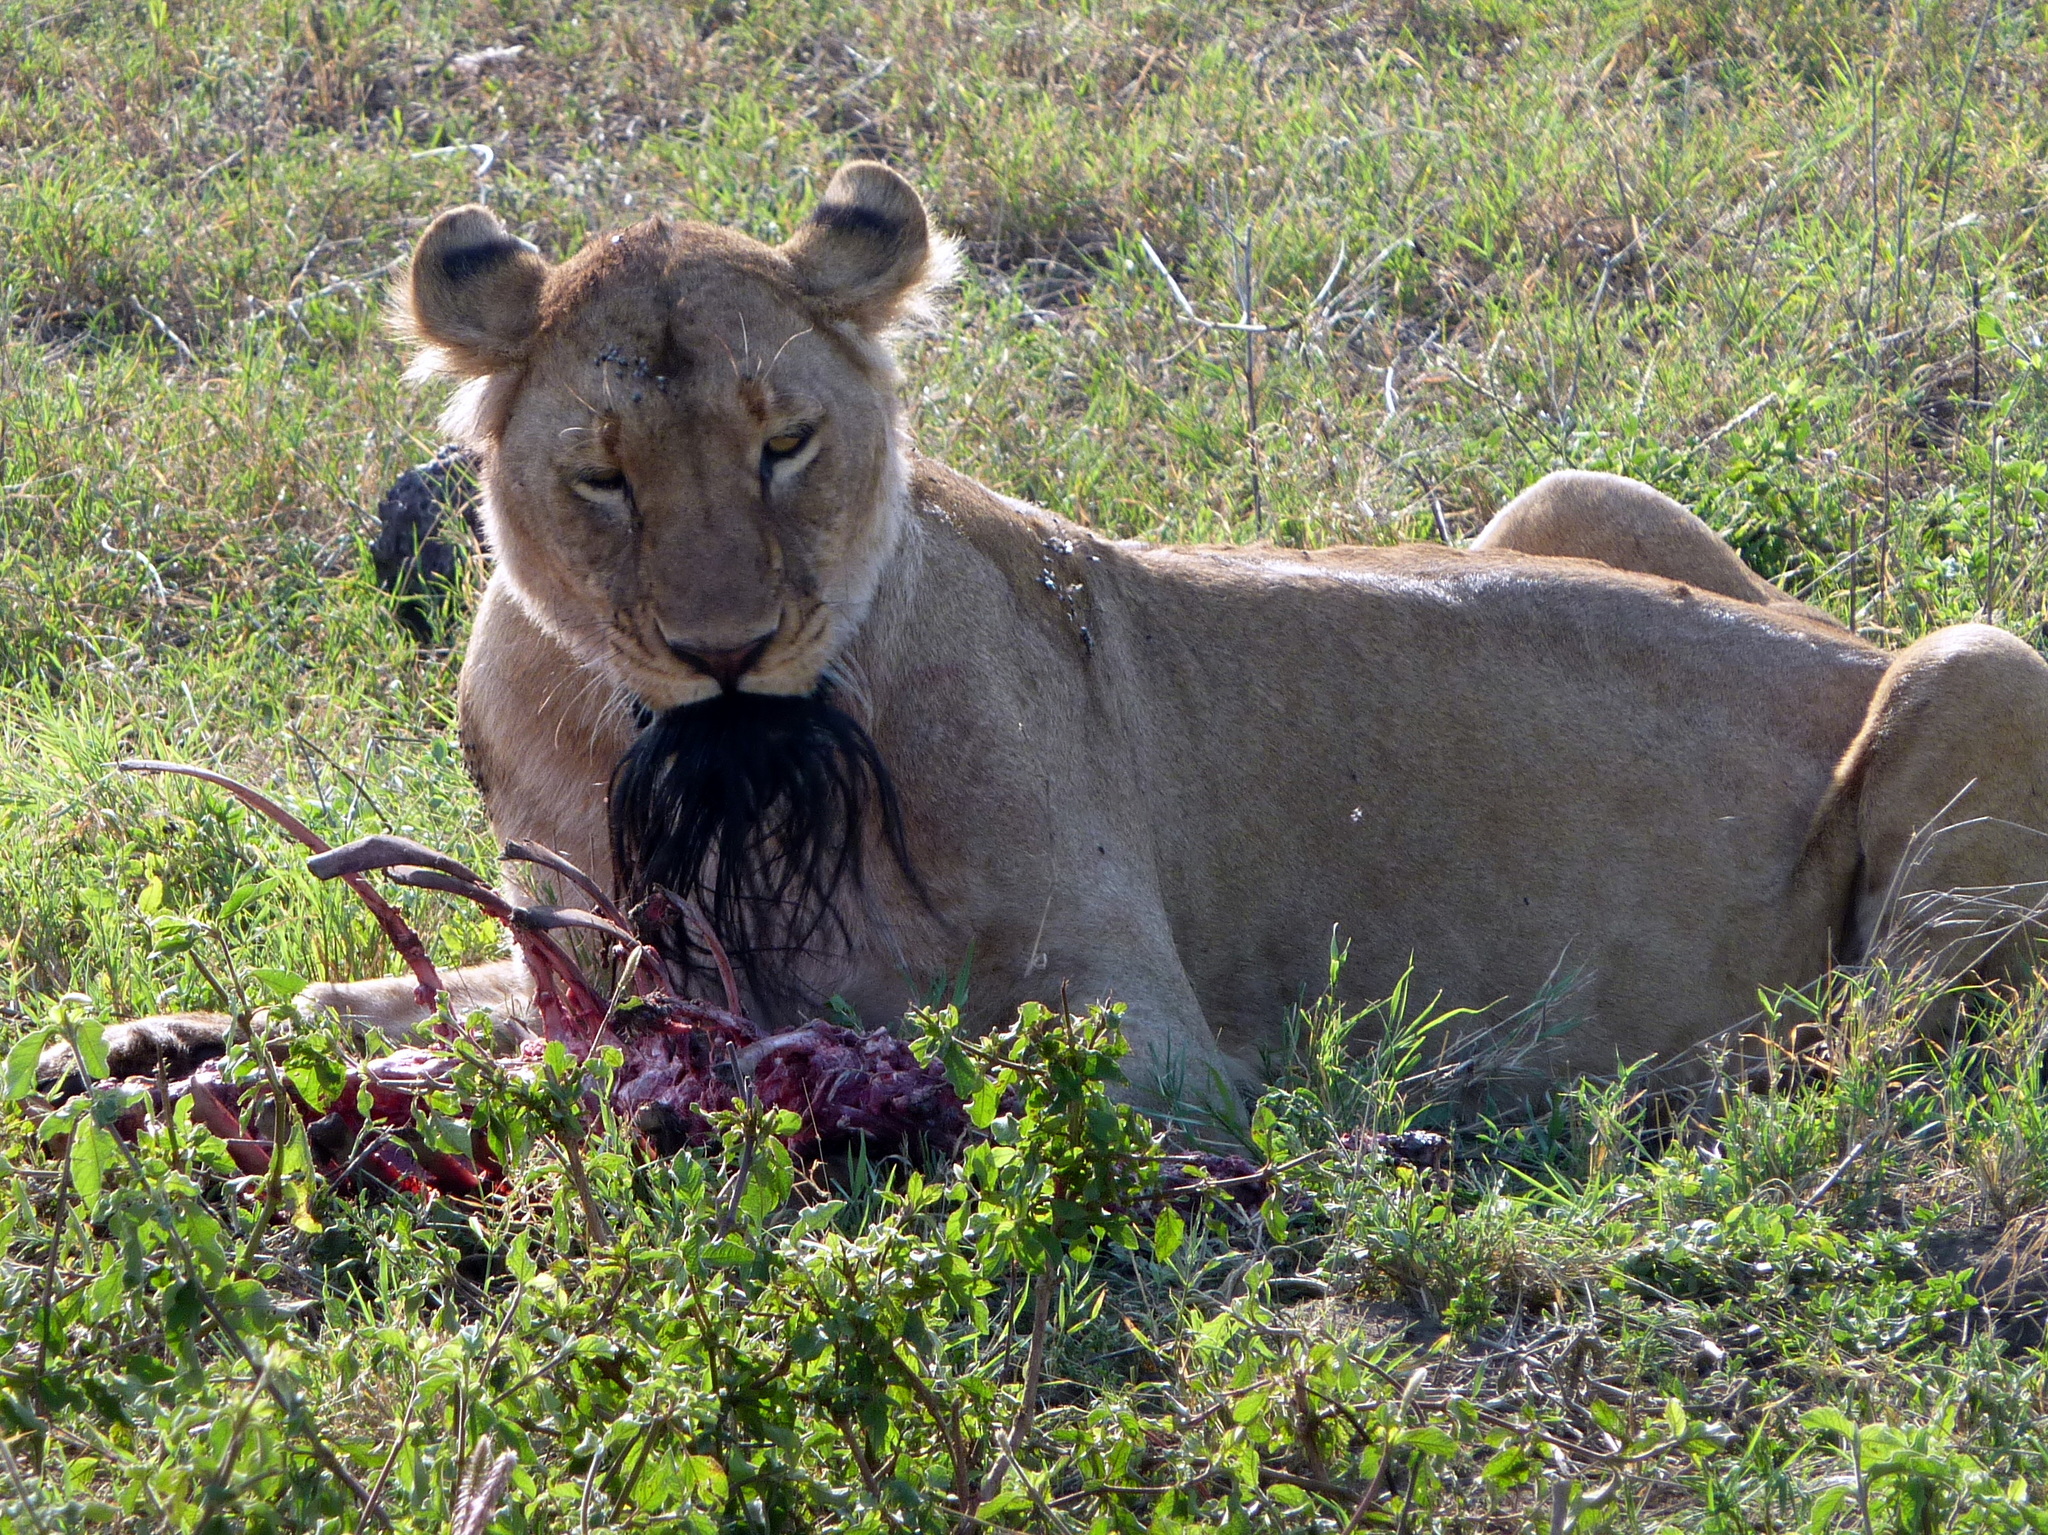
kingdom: Animalia
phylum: Chordata
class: Mammalia
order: Carnivora
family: Felidae
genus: Panthera
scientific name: Panthera leo
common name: Lion
